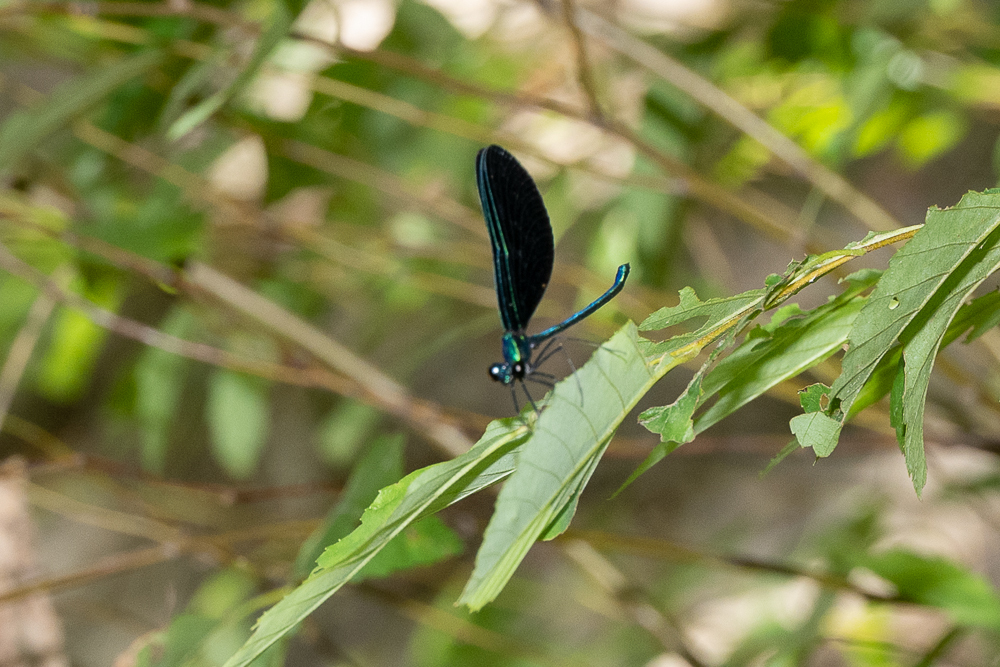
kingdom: Animalia
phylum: Arthropoda
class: Insecta
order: Odonata
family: Calopterygidae
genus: Calopteryx
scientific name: Calopteryx maculata
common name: Ebony jewelwing
